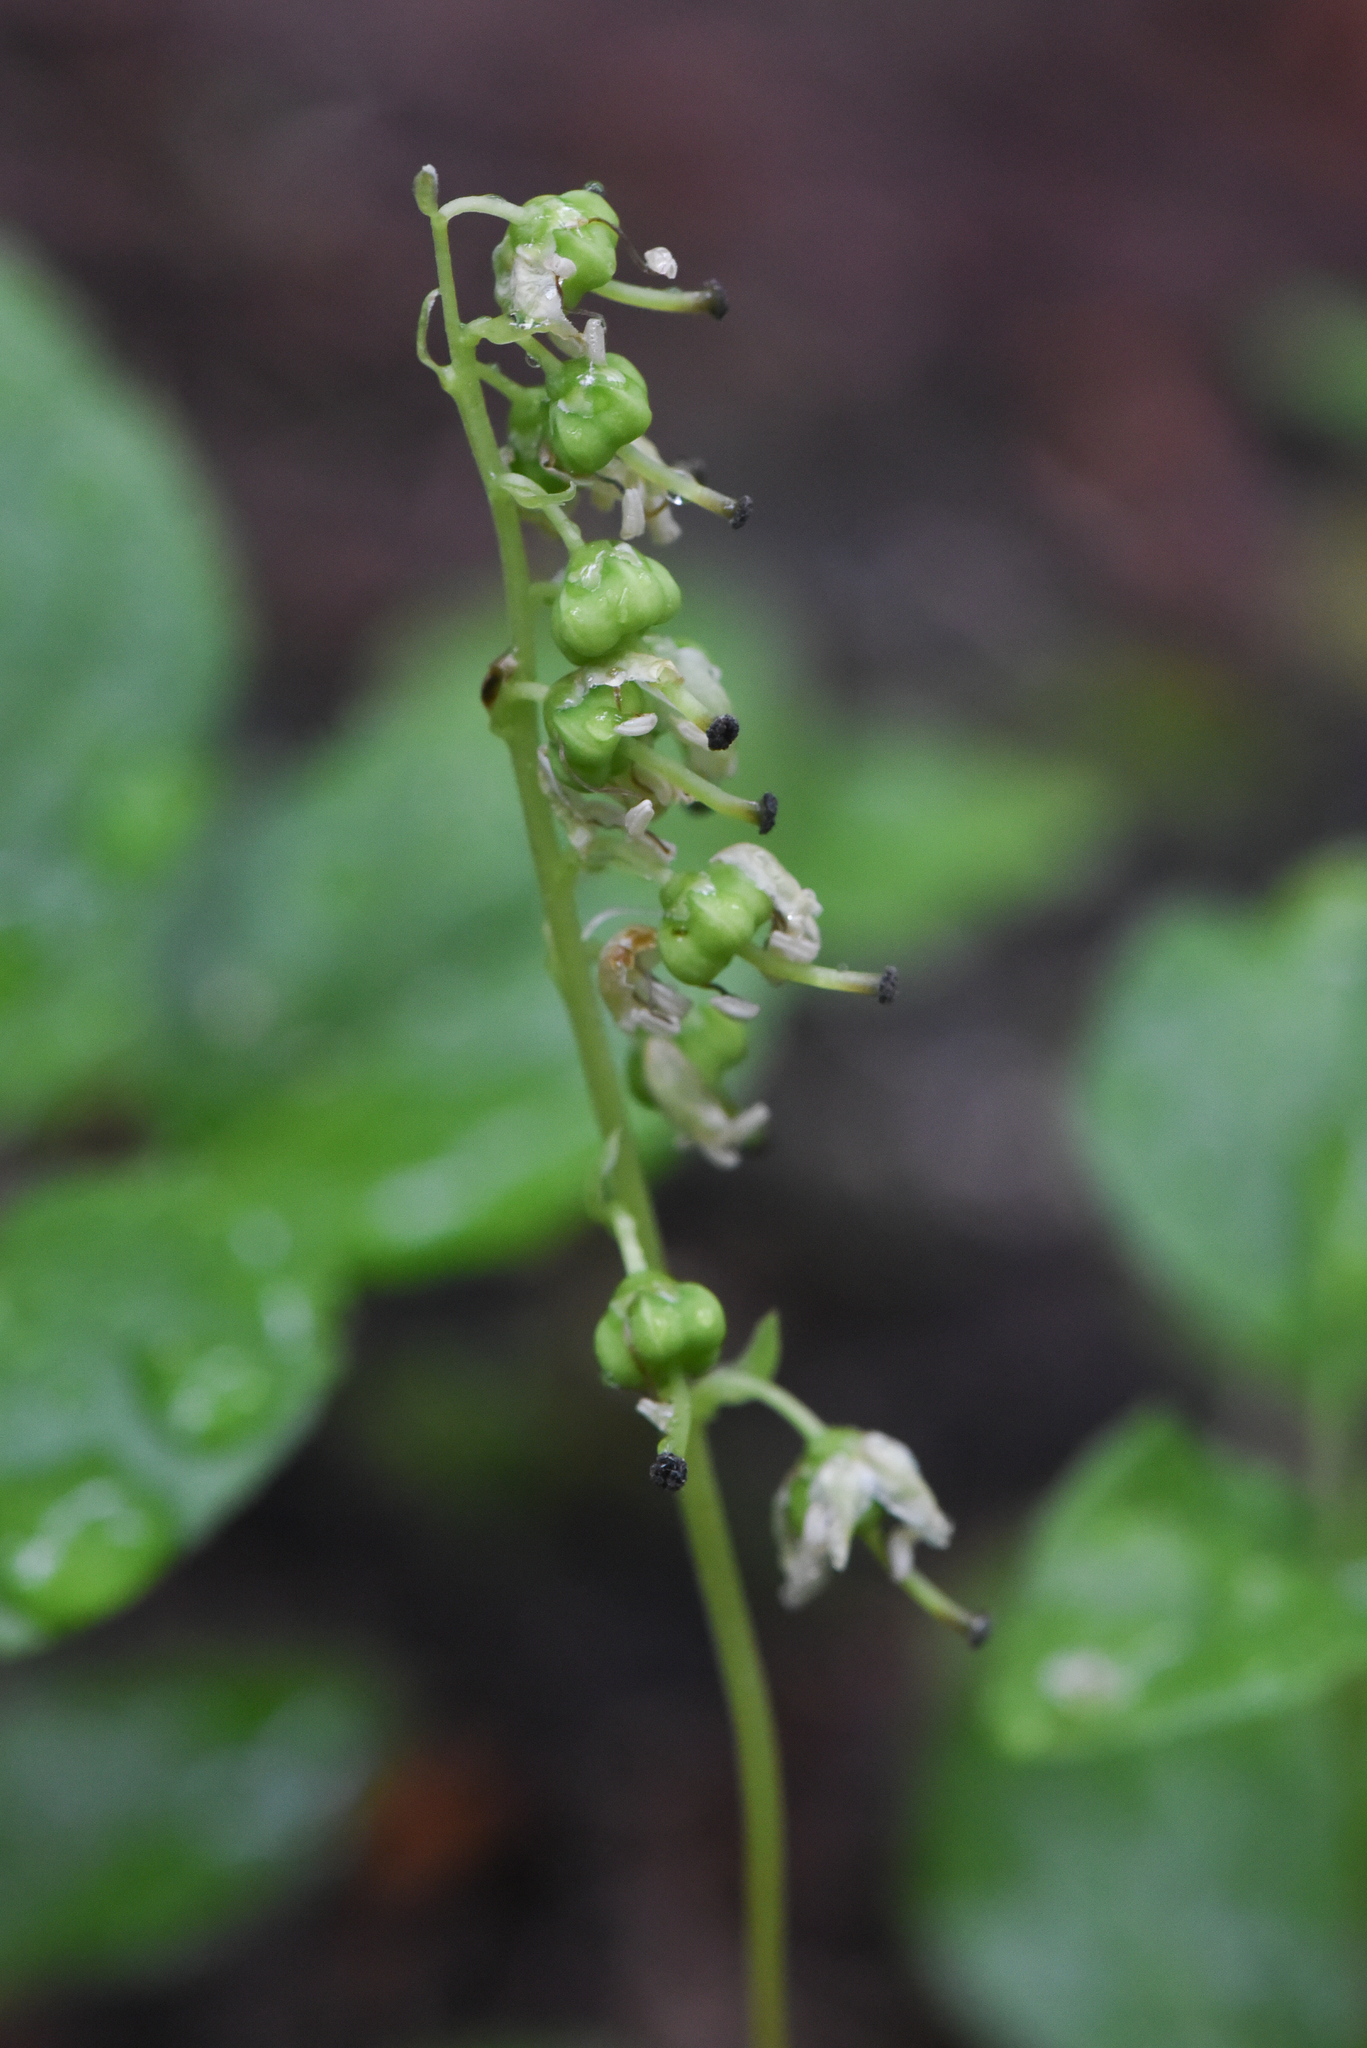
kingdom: Plantae
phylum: Tracheophyta
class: Magnoliopsida
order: Ericales
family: Ericaceae
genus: Orthilia
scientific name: Orthilia secunda
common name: One-sided orthilia
